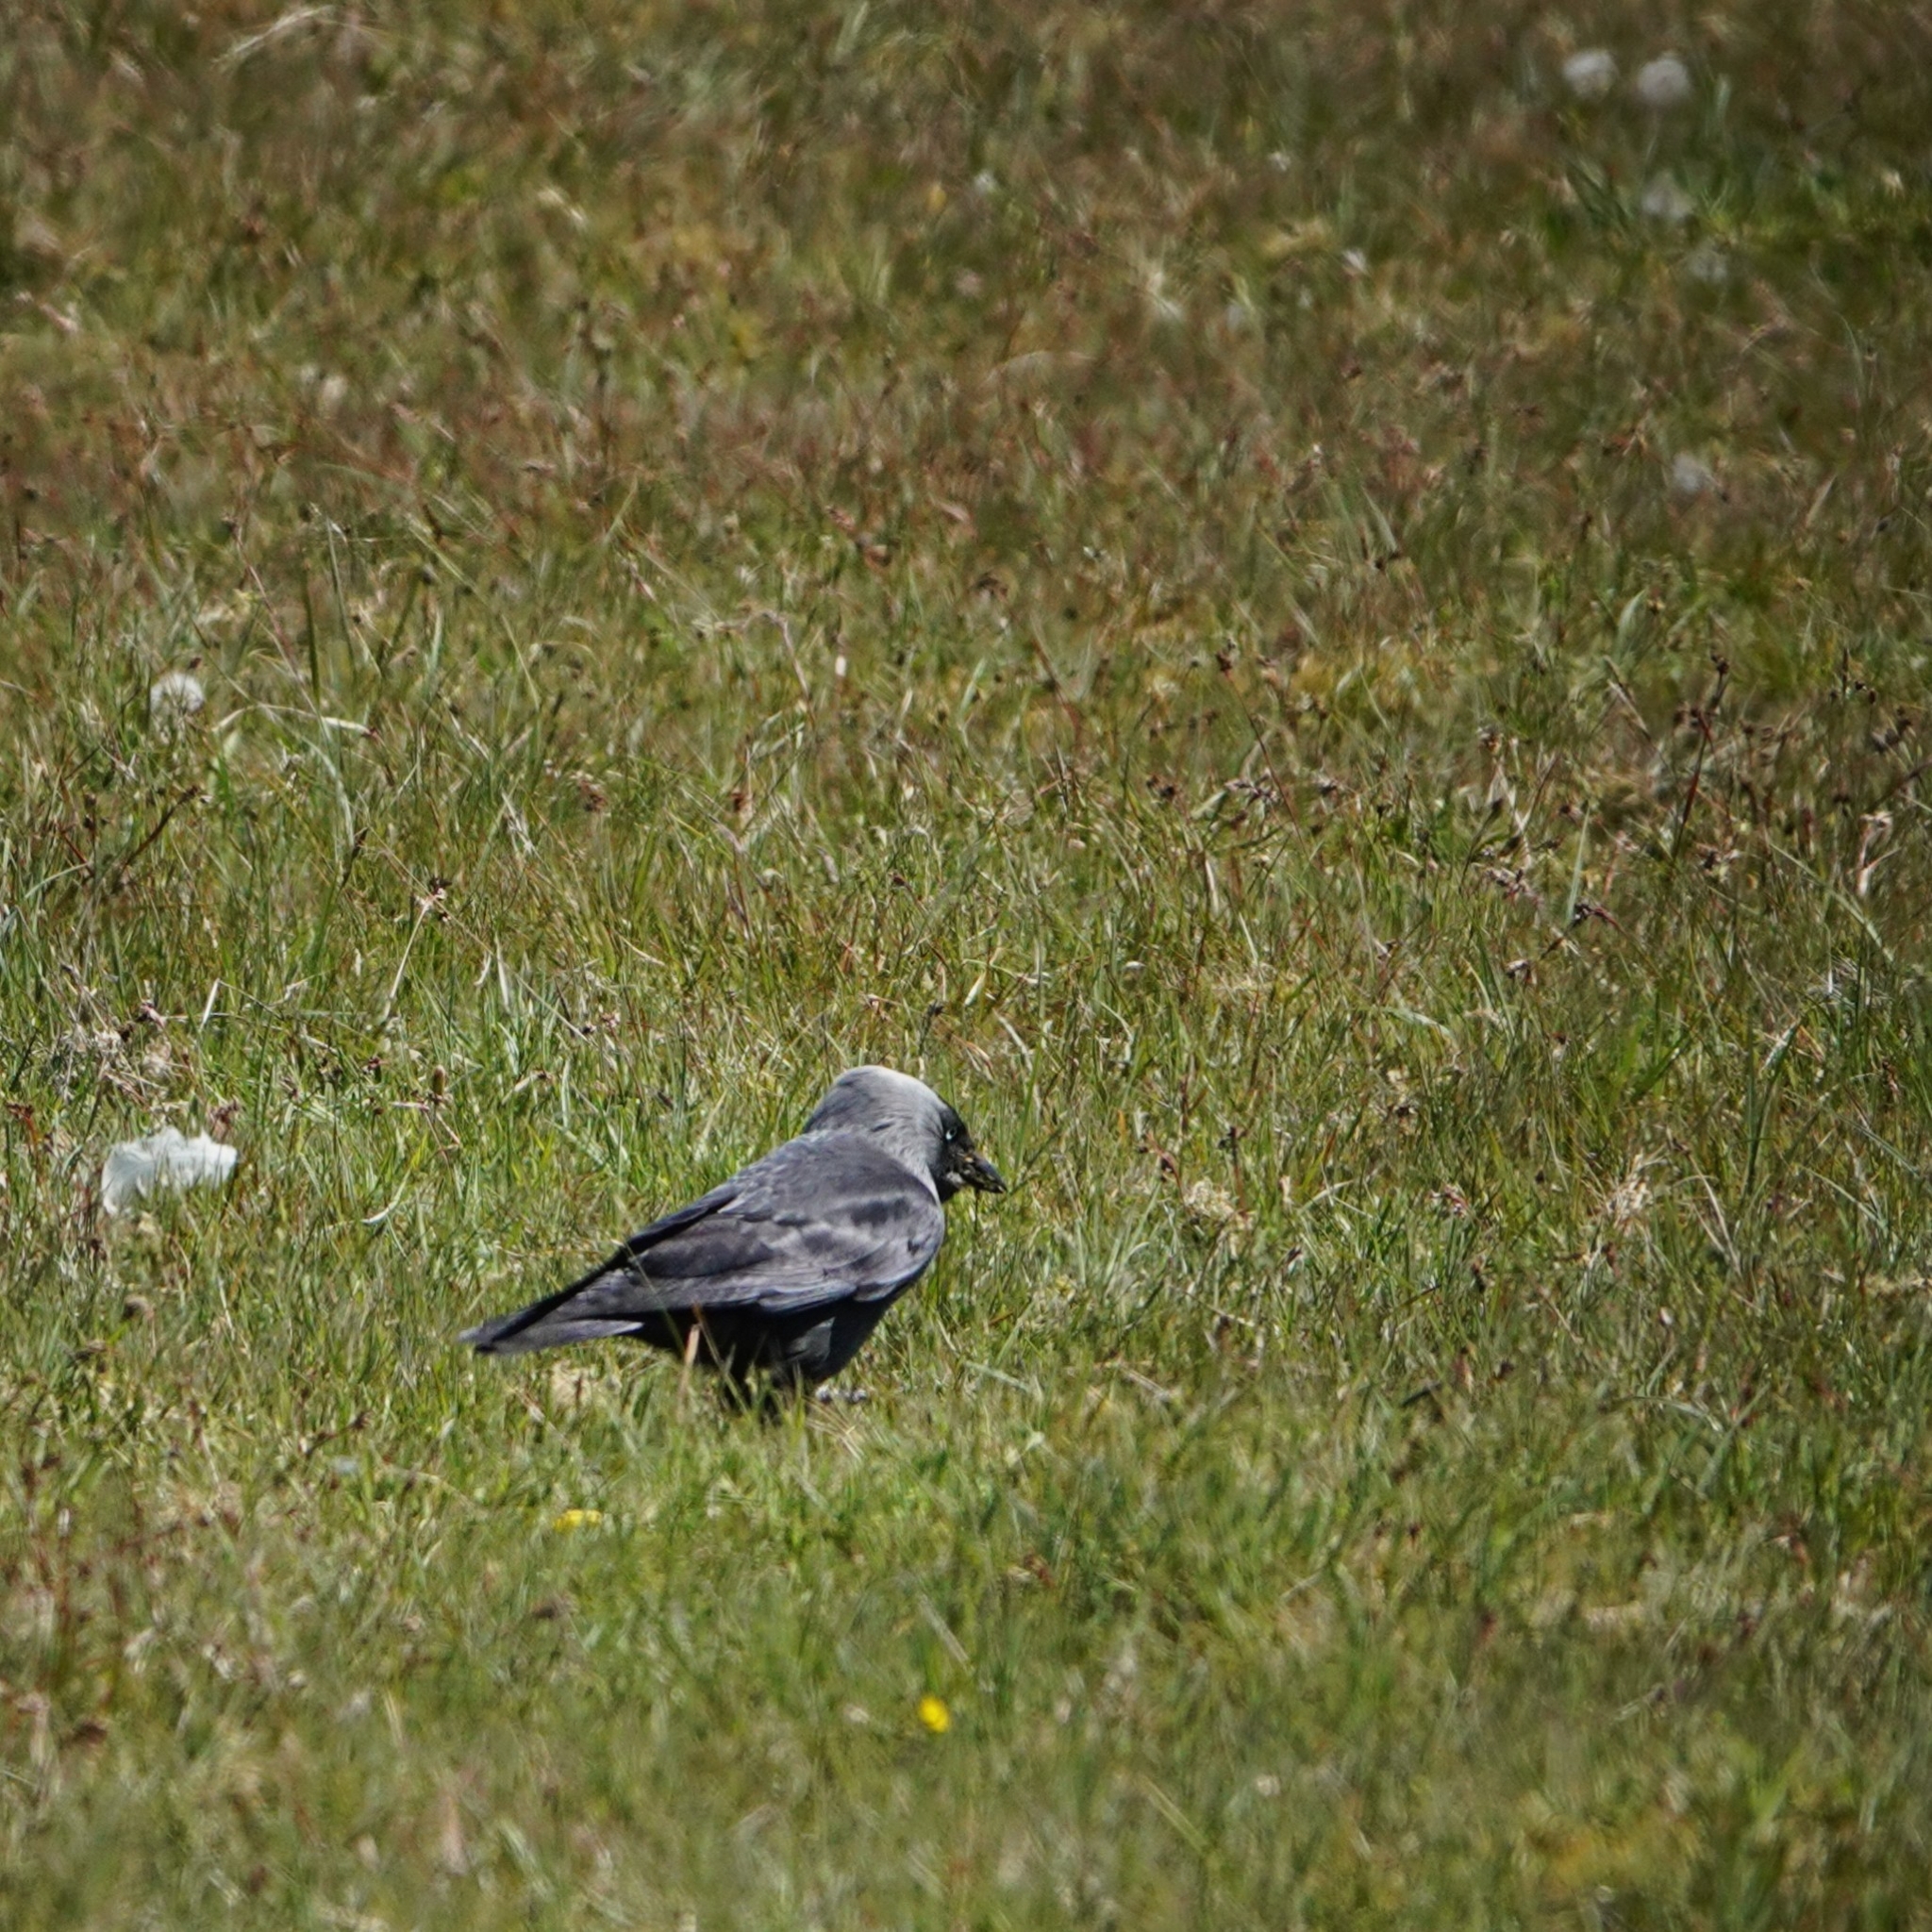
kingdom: Animalia
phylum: Chordata
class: Aves
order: Passeriformes
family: Corvidae
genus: Coloeus
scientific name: Coloeus monedula
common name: Western jackdaw
